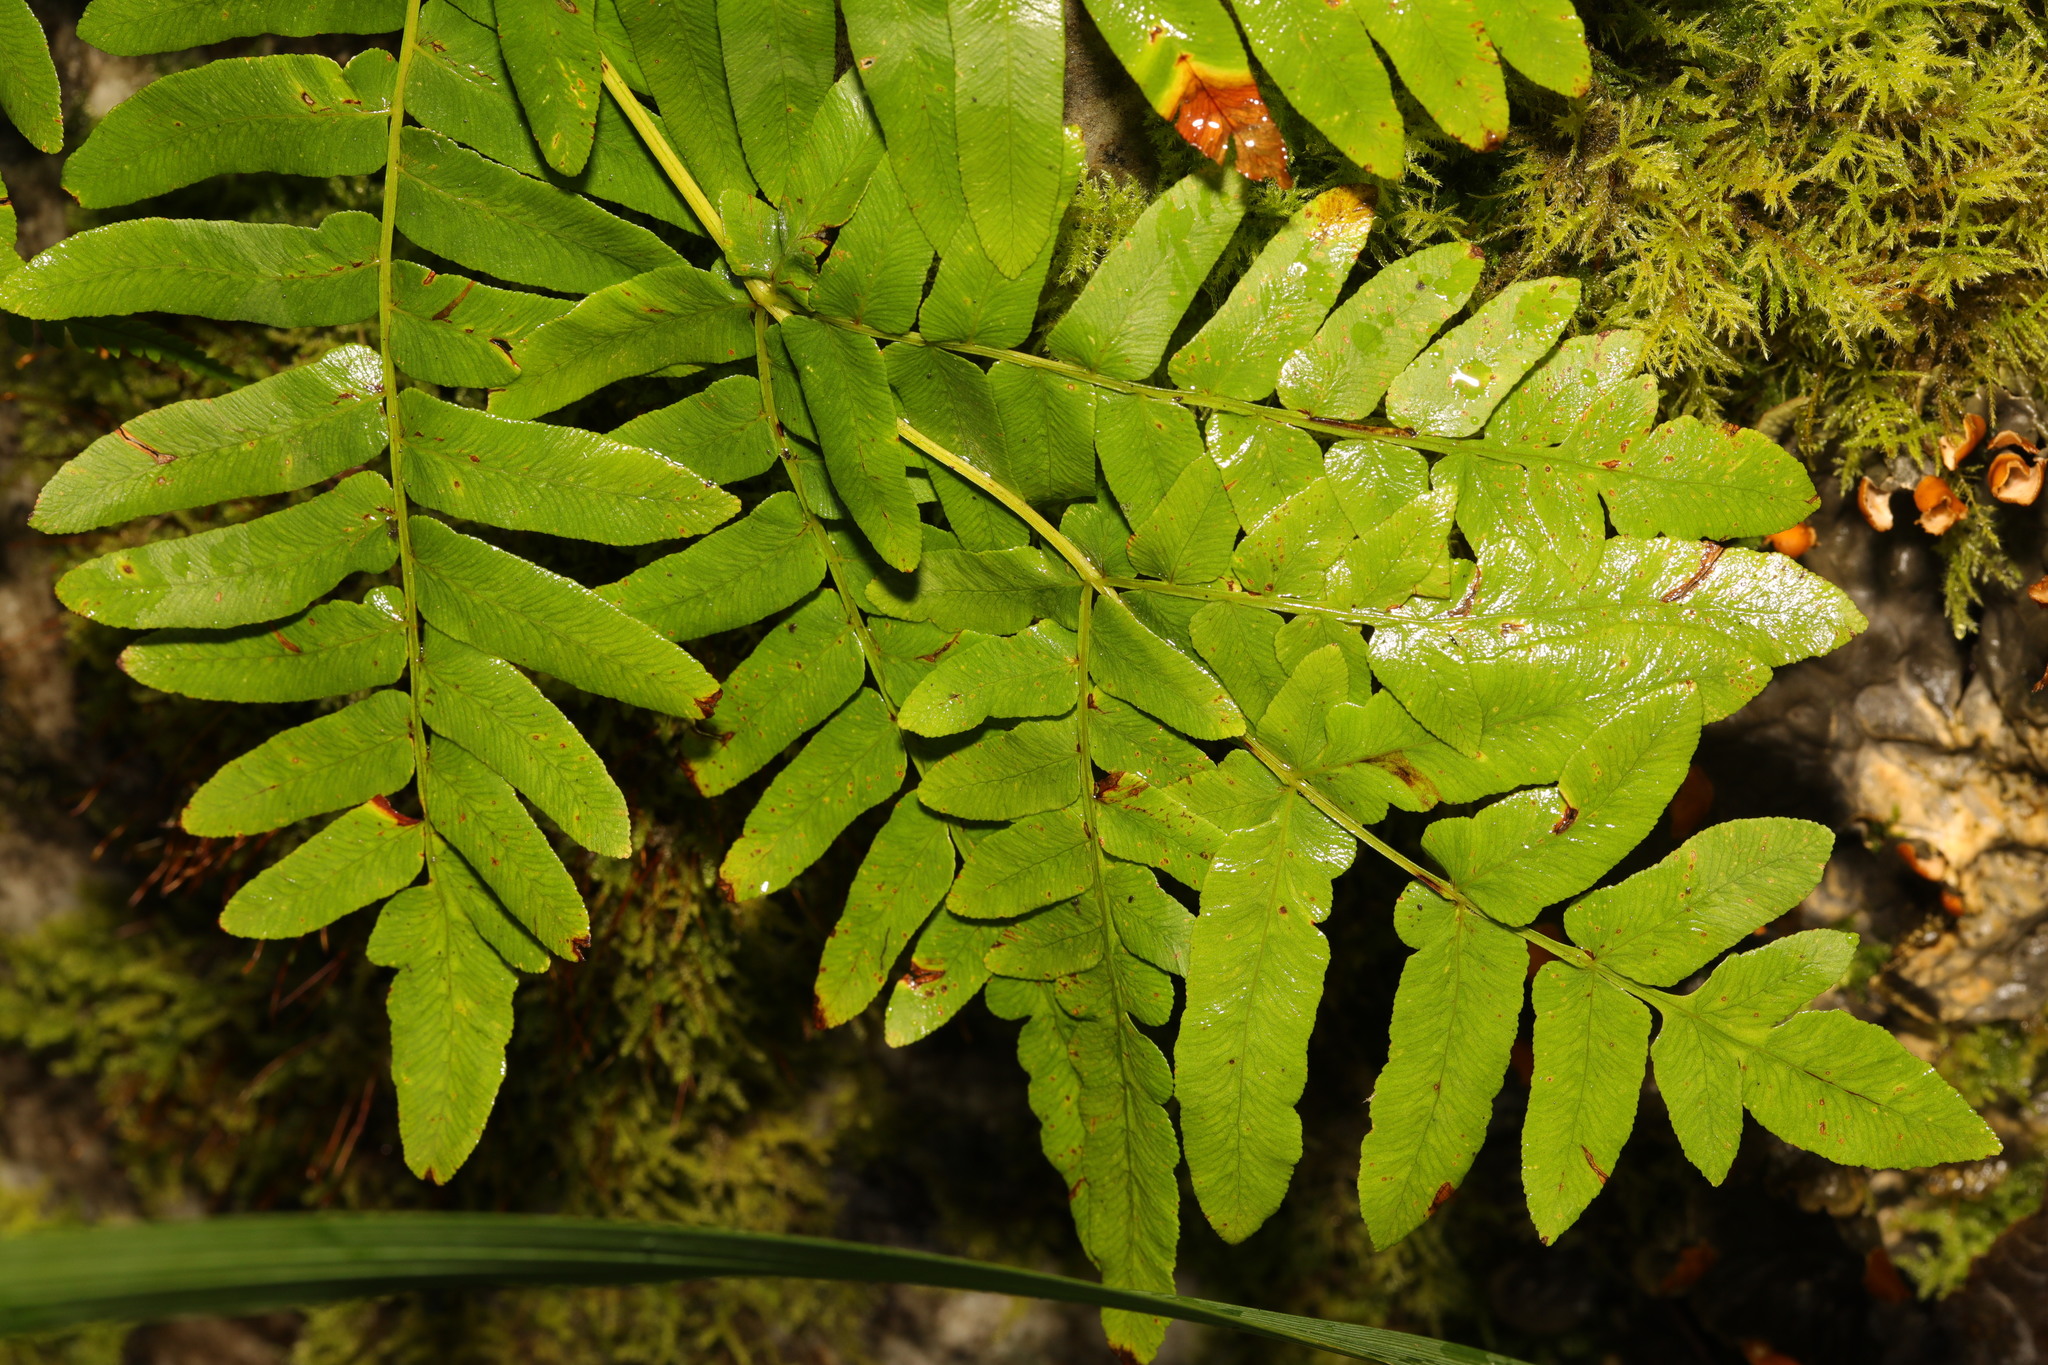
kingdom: Plantae
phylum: Tracheophyta
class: Polypodiopsida
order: Osmundales
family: Osmundaceae
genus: Osmunda
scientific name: Osmunda regalis
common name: Royal fern
